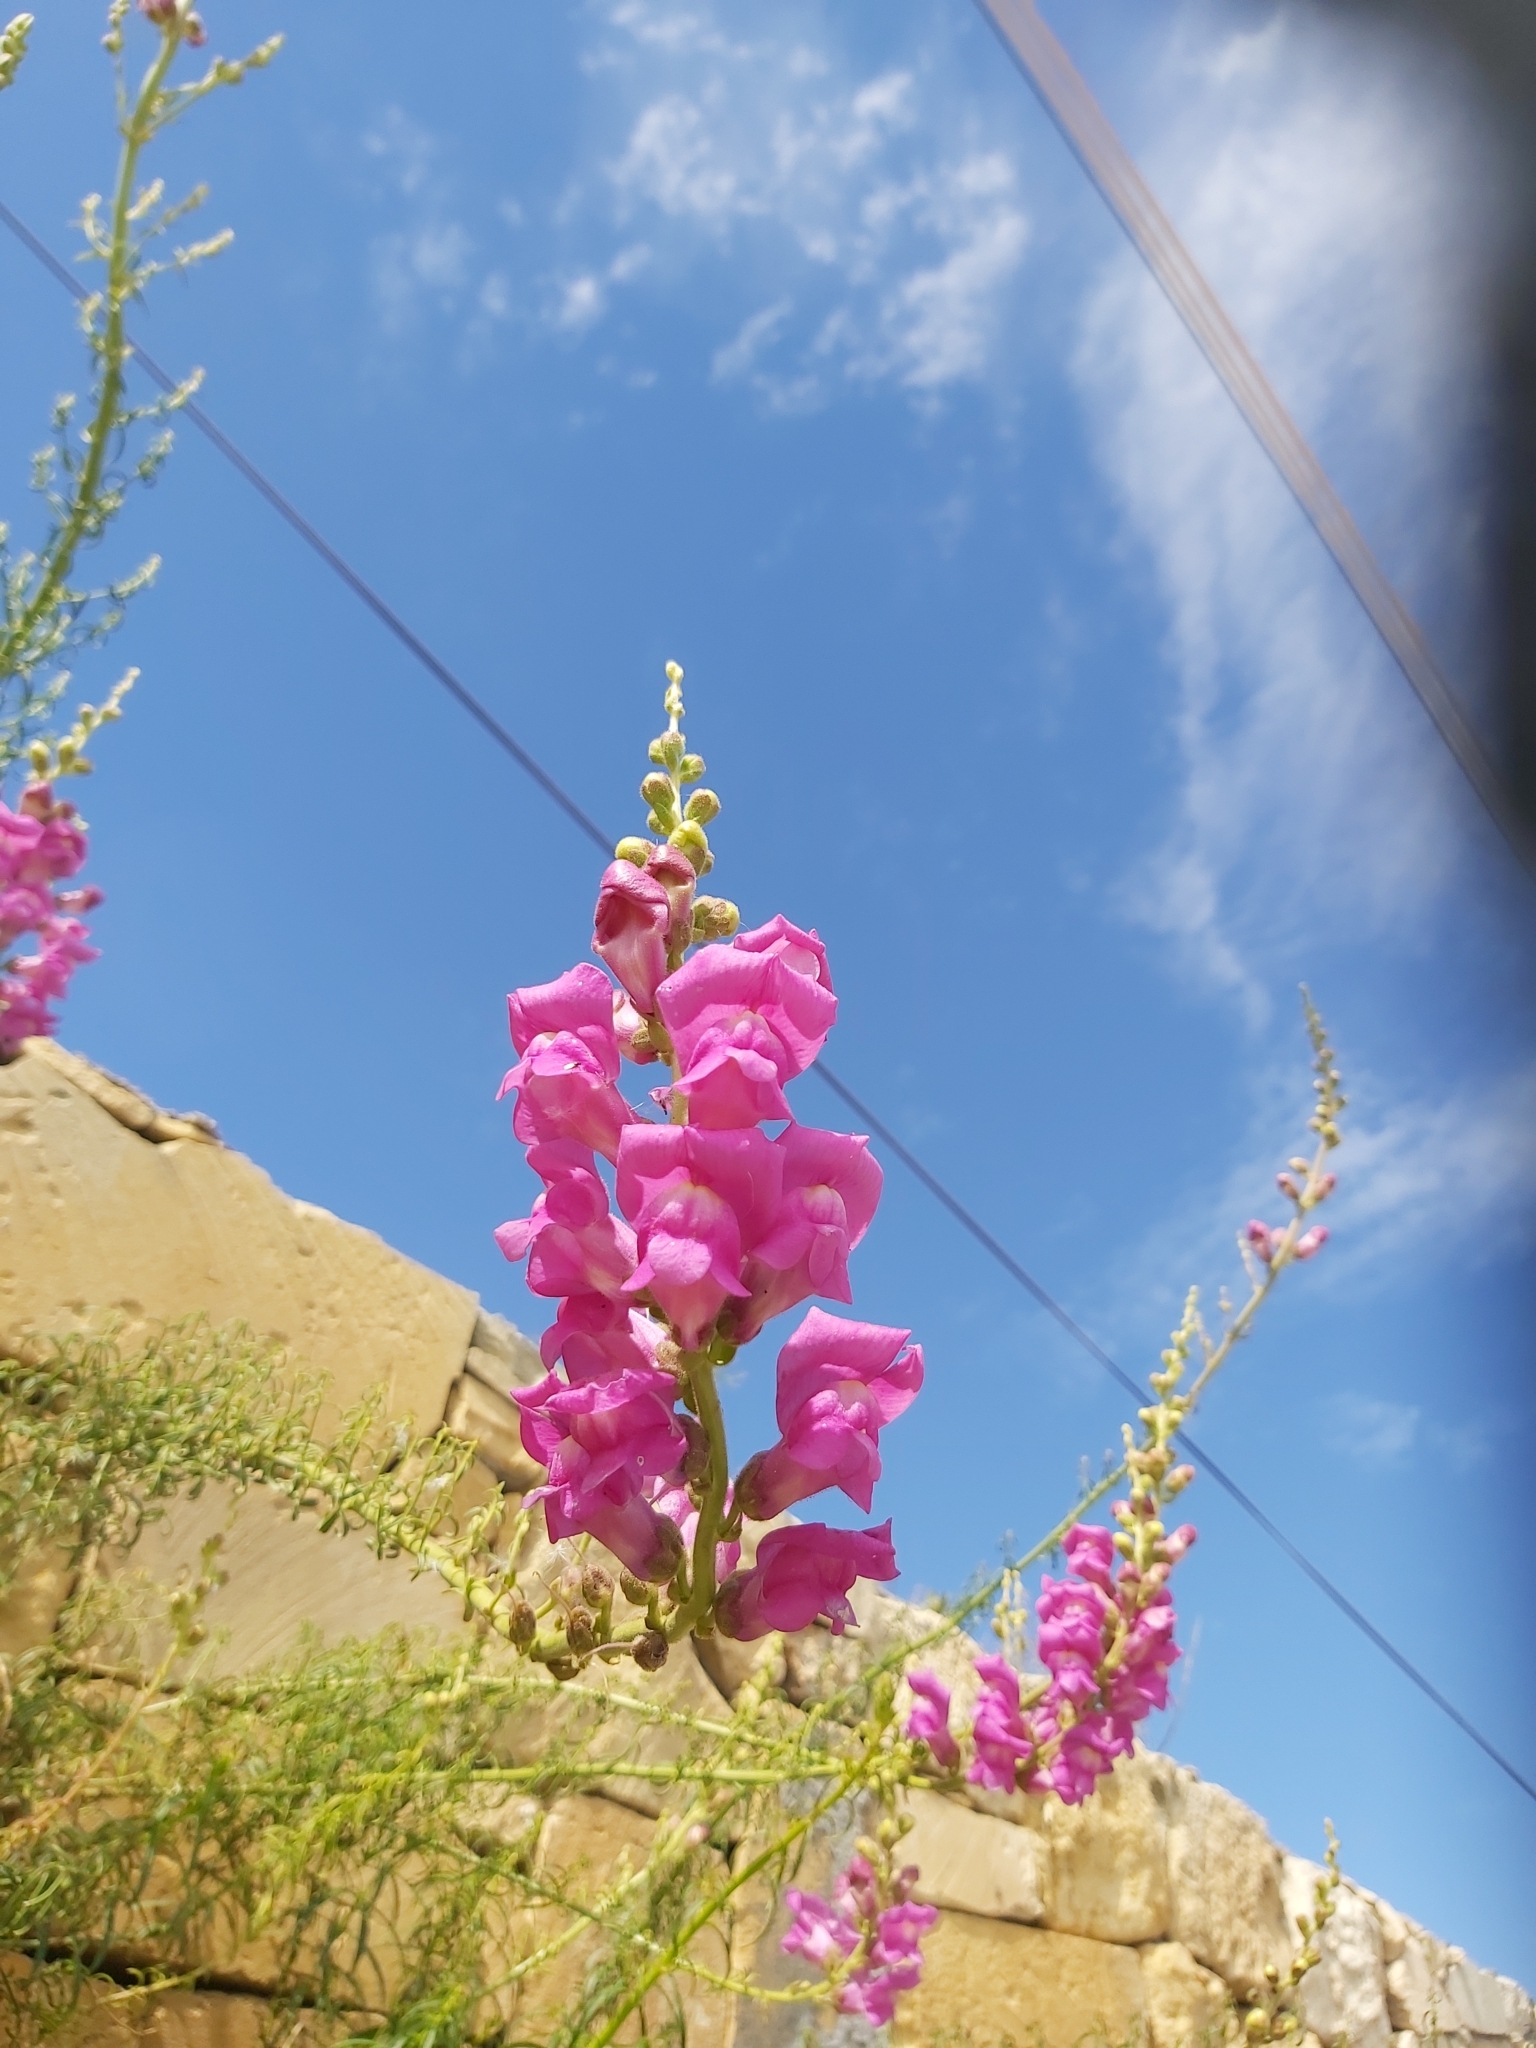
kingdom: Plantae
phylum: Tracheophyta
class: Magnoliopsida
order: Lamiales
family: Plantaginaceae
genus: Antirrhinum
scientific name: Antirrhinum tortuosum
